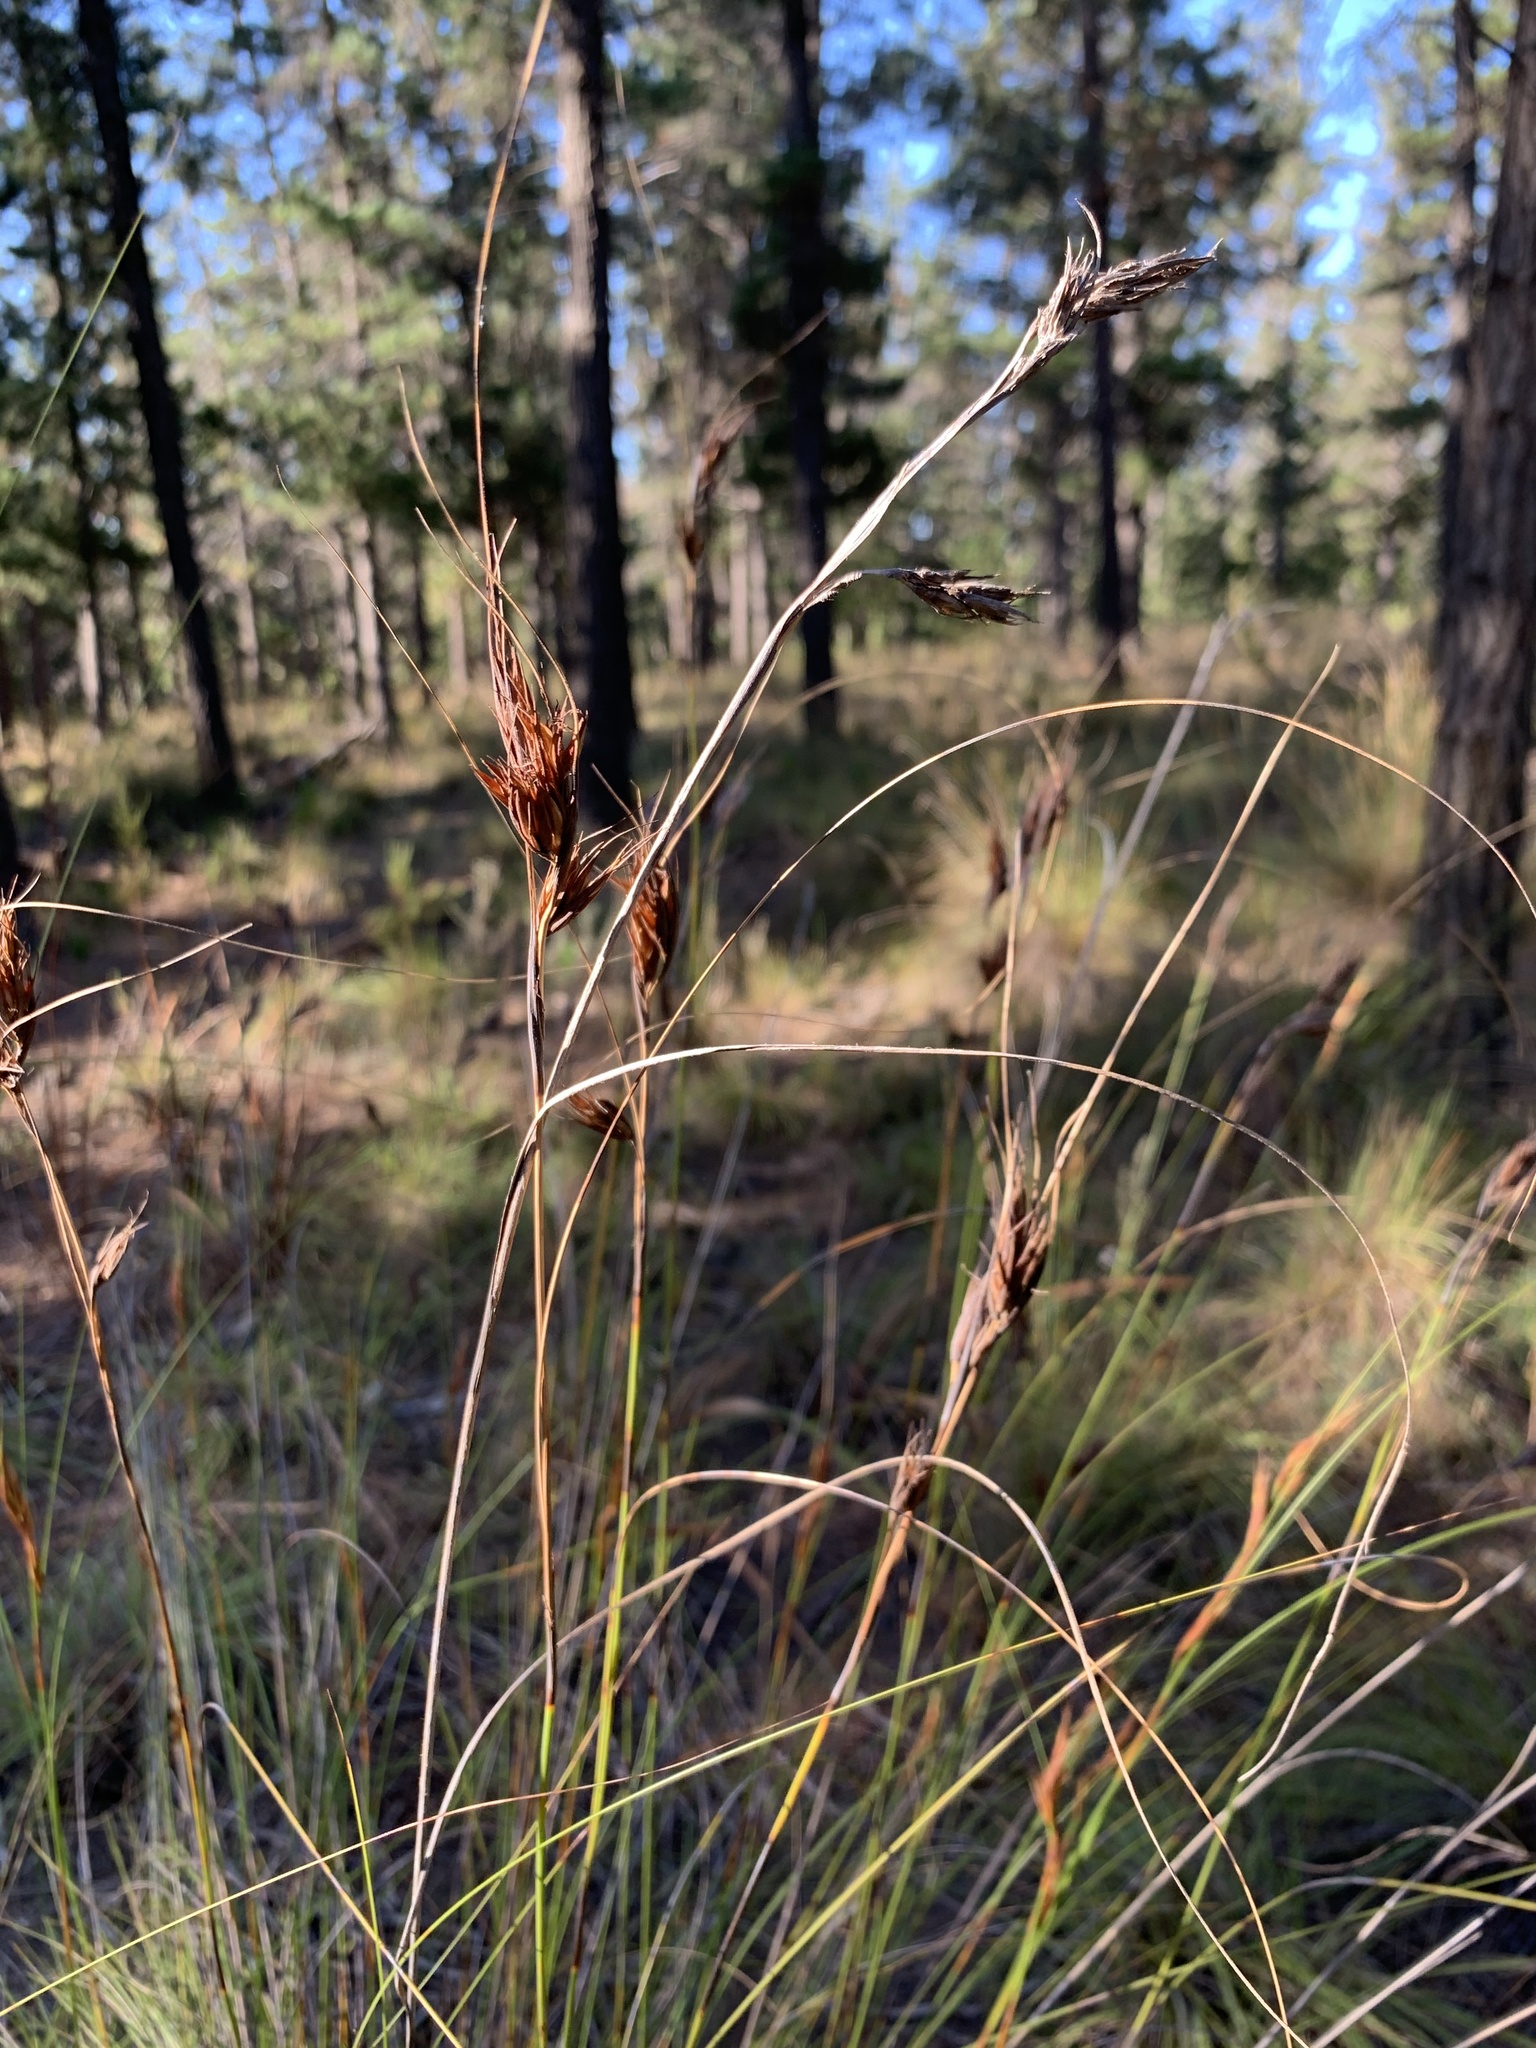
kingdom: Plantae
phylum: Tracheophyta
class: Liliopsida
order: Poales
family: Cyperaceae
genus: Tetraria
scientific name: Tetraria ustulata
